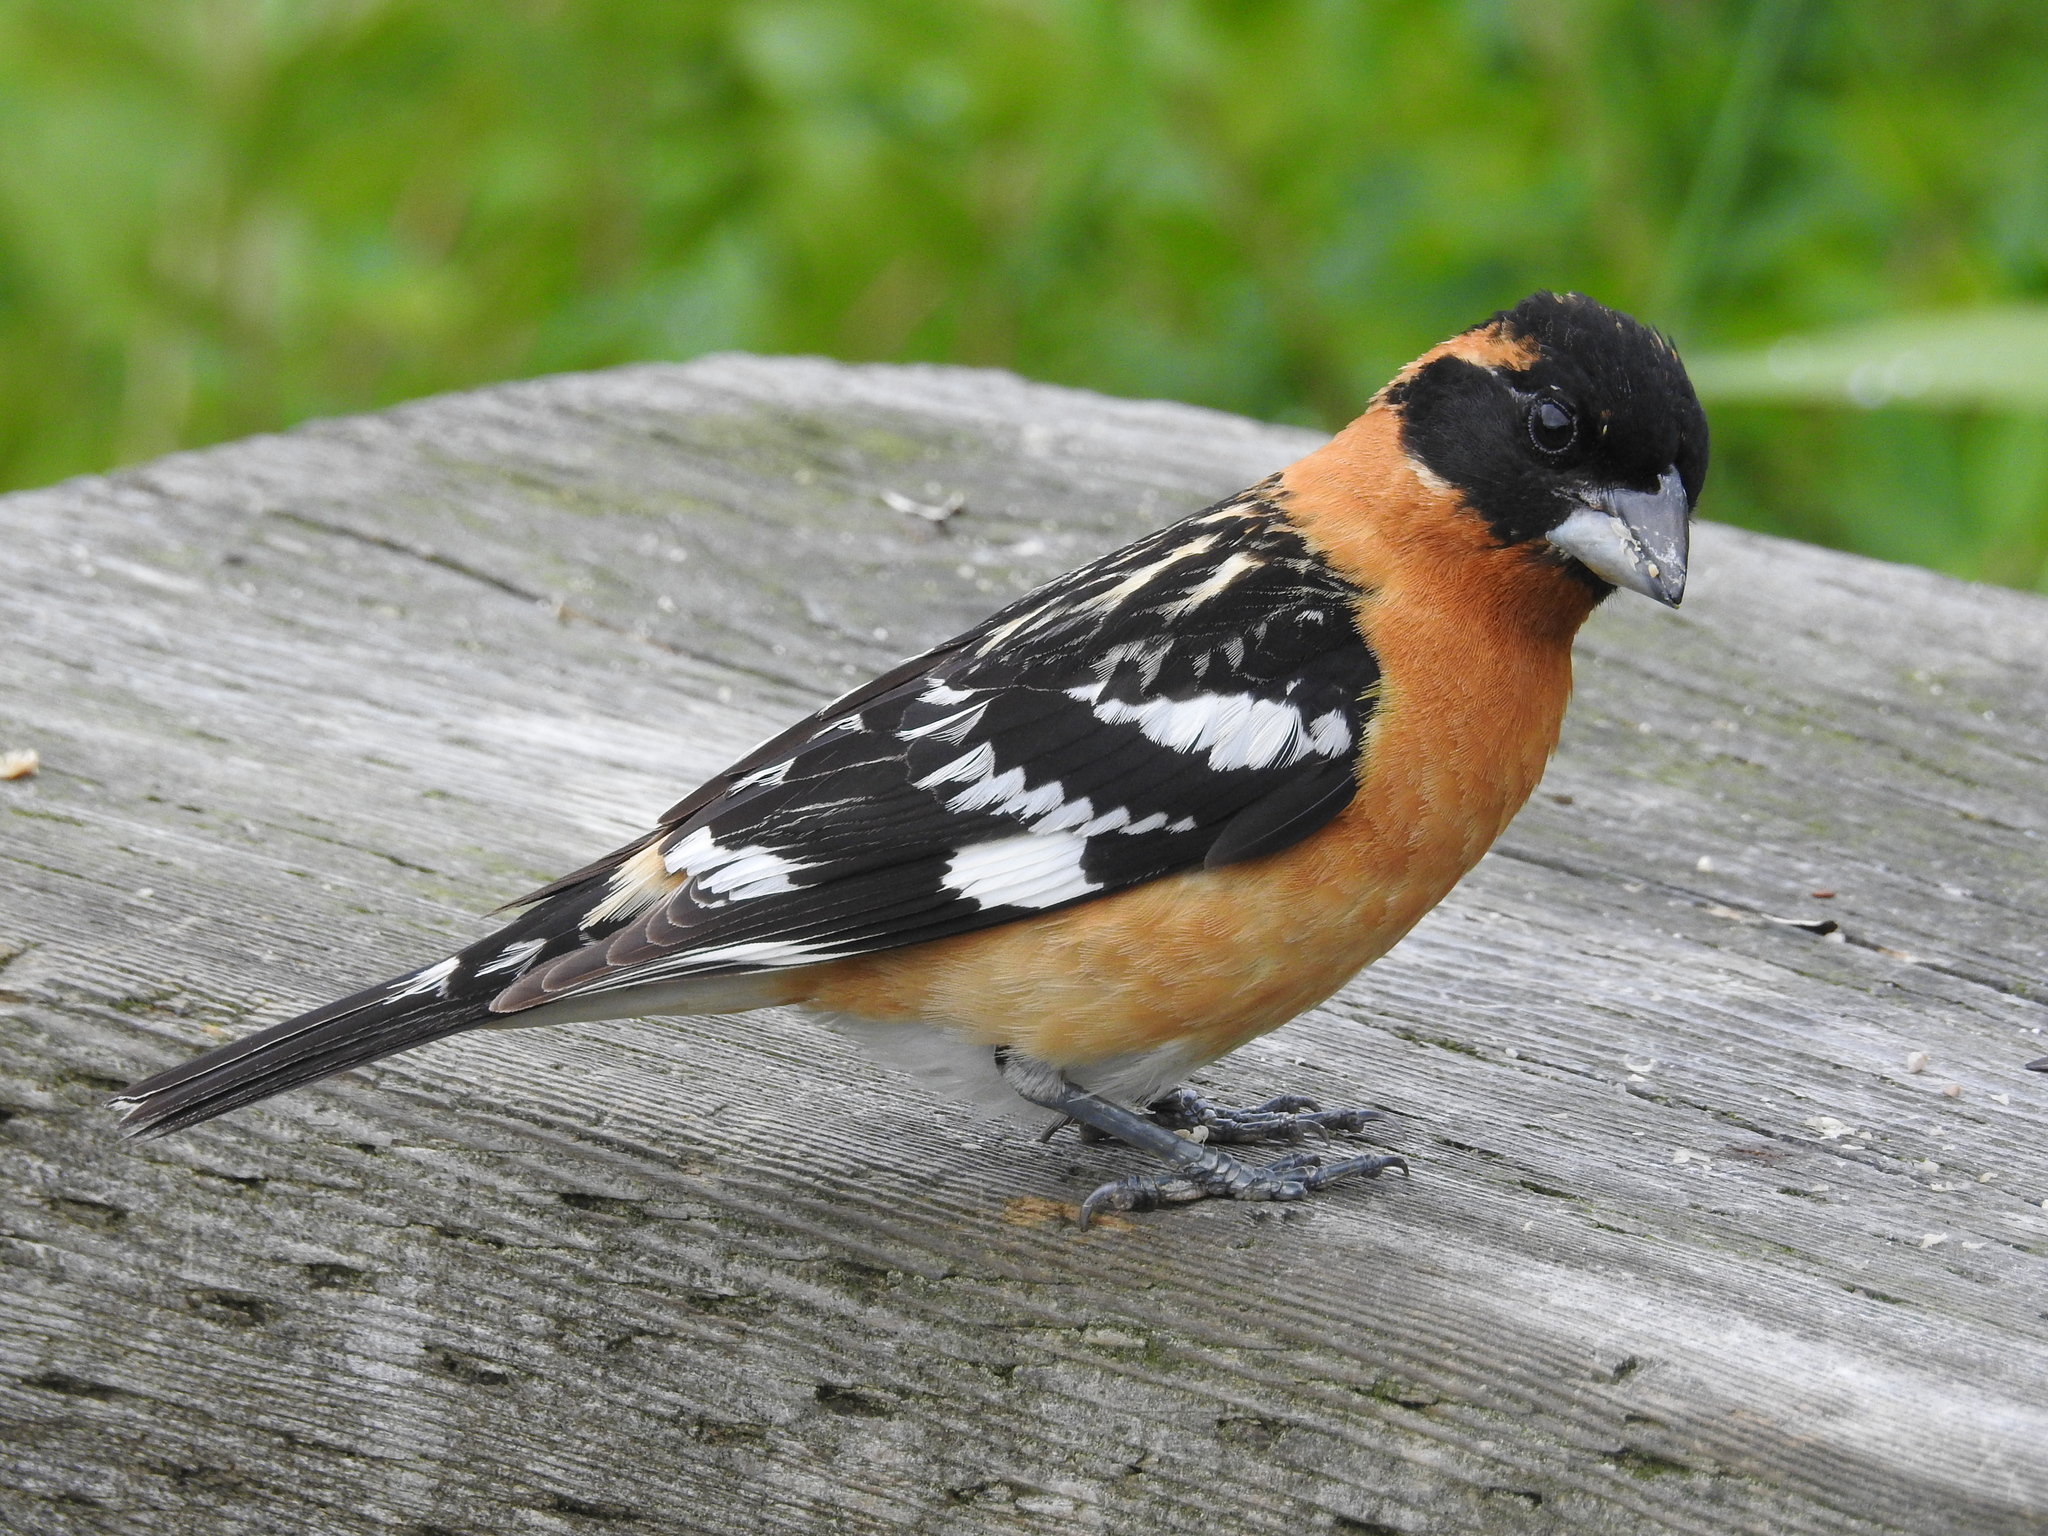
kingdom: Animalia
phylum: Chordata
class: Aves
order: Passeriformes
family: Cardinalidae
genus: Pheucticus
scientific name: Pheucticus melanocephalus
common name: Black-headed grosbeak
